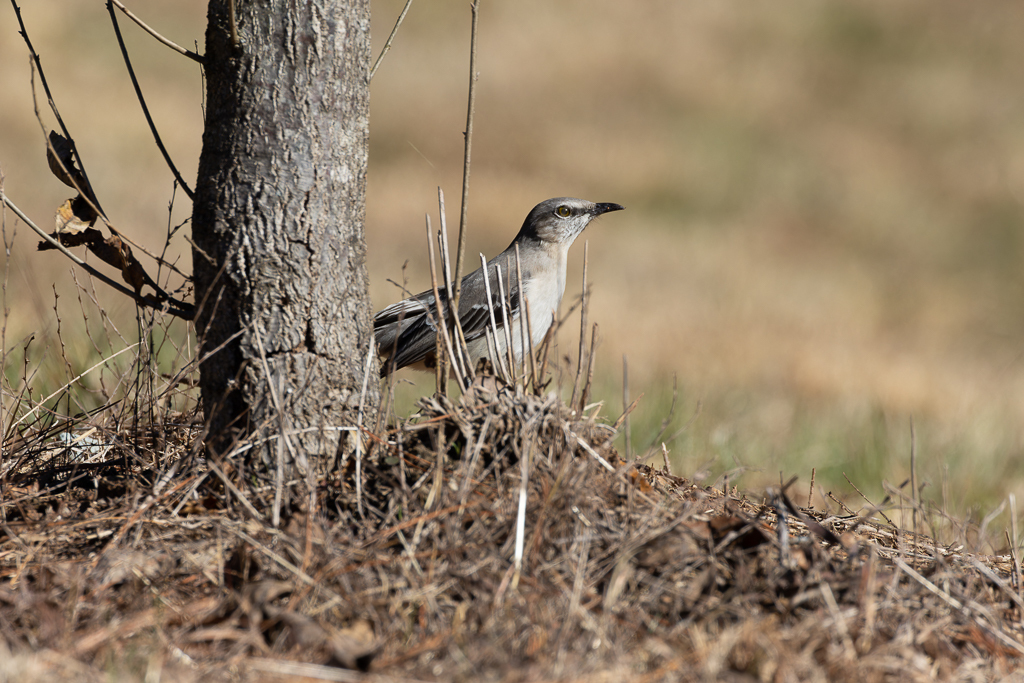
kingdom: Animalia
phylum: Chordata
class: Aves
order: Passeriformes
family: Mimidae
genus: Mimus
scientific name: Mimus polyglottos
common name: Northern mockingbird
